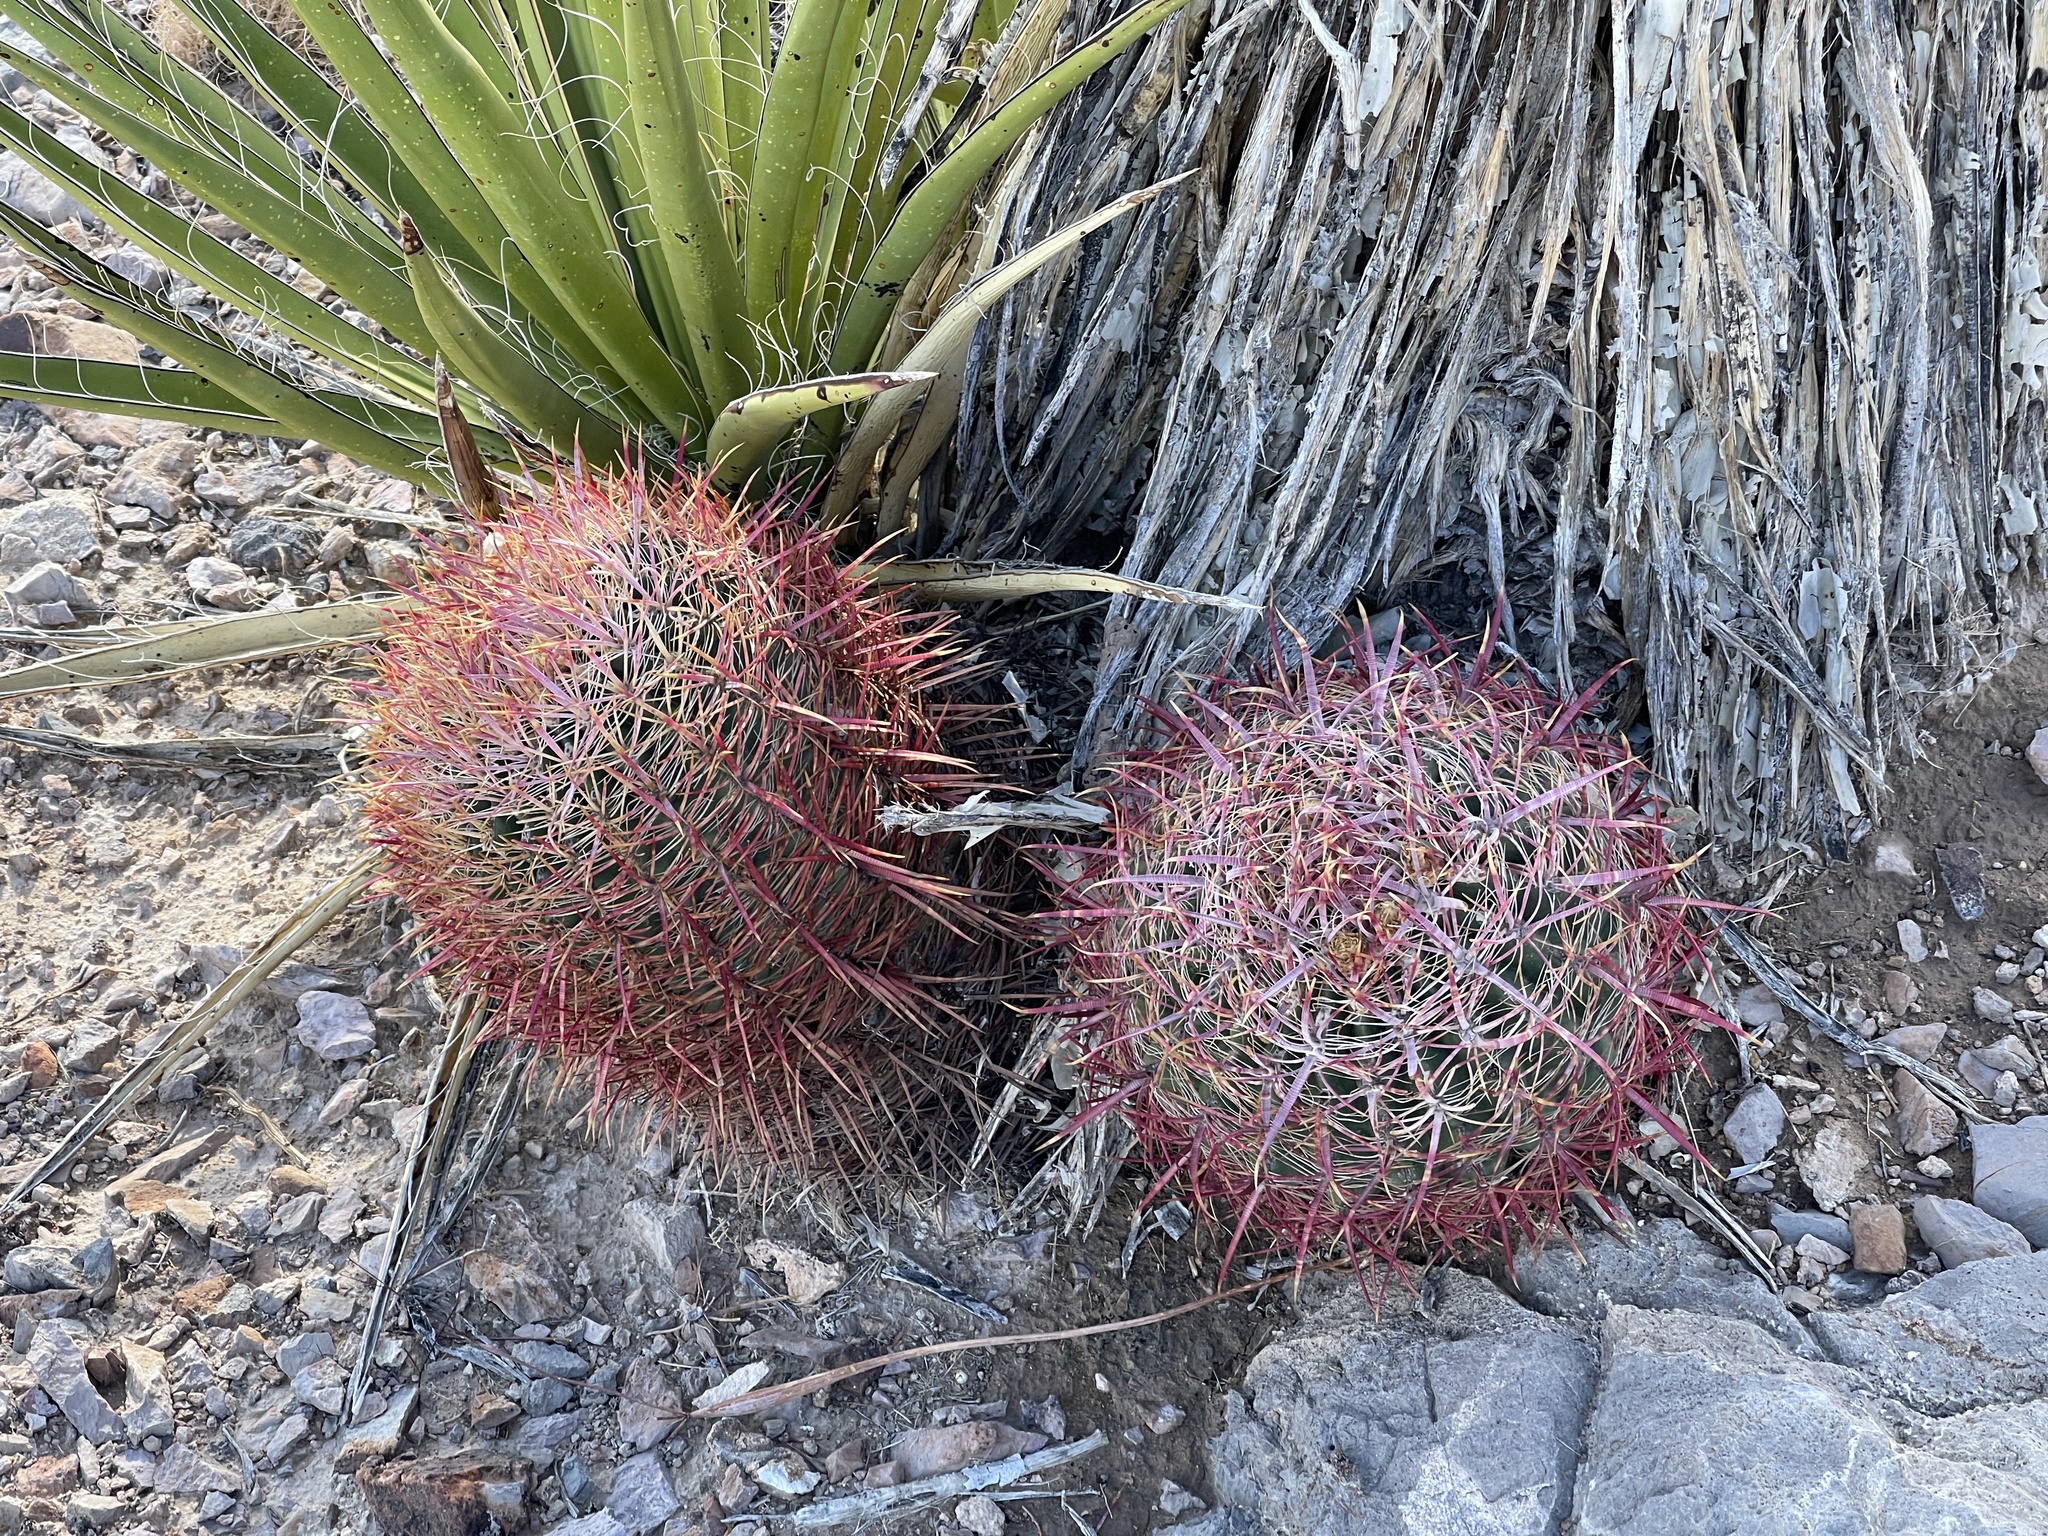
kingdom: Plantae
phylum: Tracheophyta
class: Magnoliopsida
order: Caryophyllales
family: Cactaceae
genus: Ferocactus
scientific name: Ferocactus cylindraceus
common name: California barrel cactus
